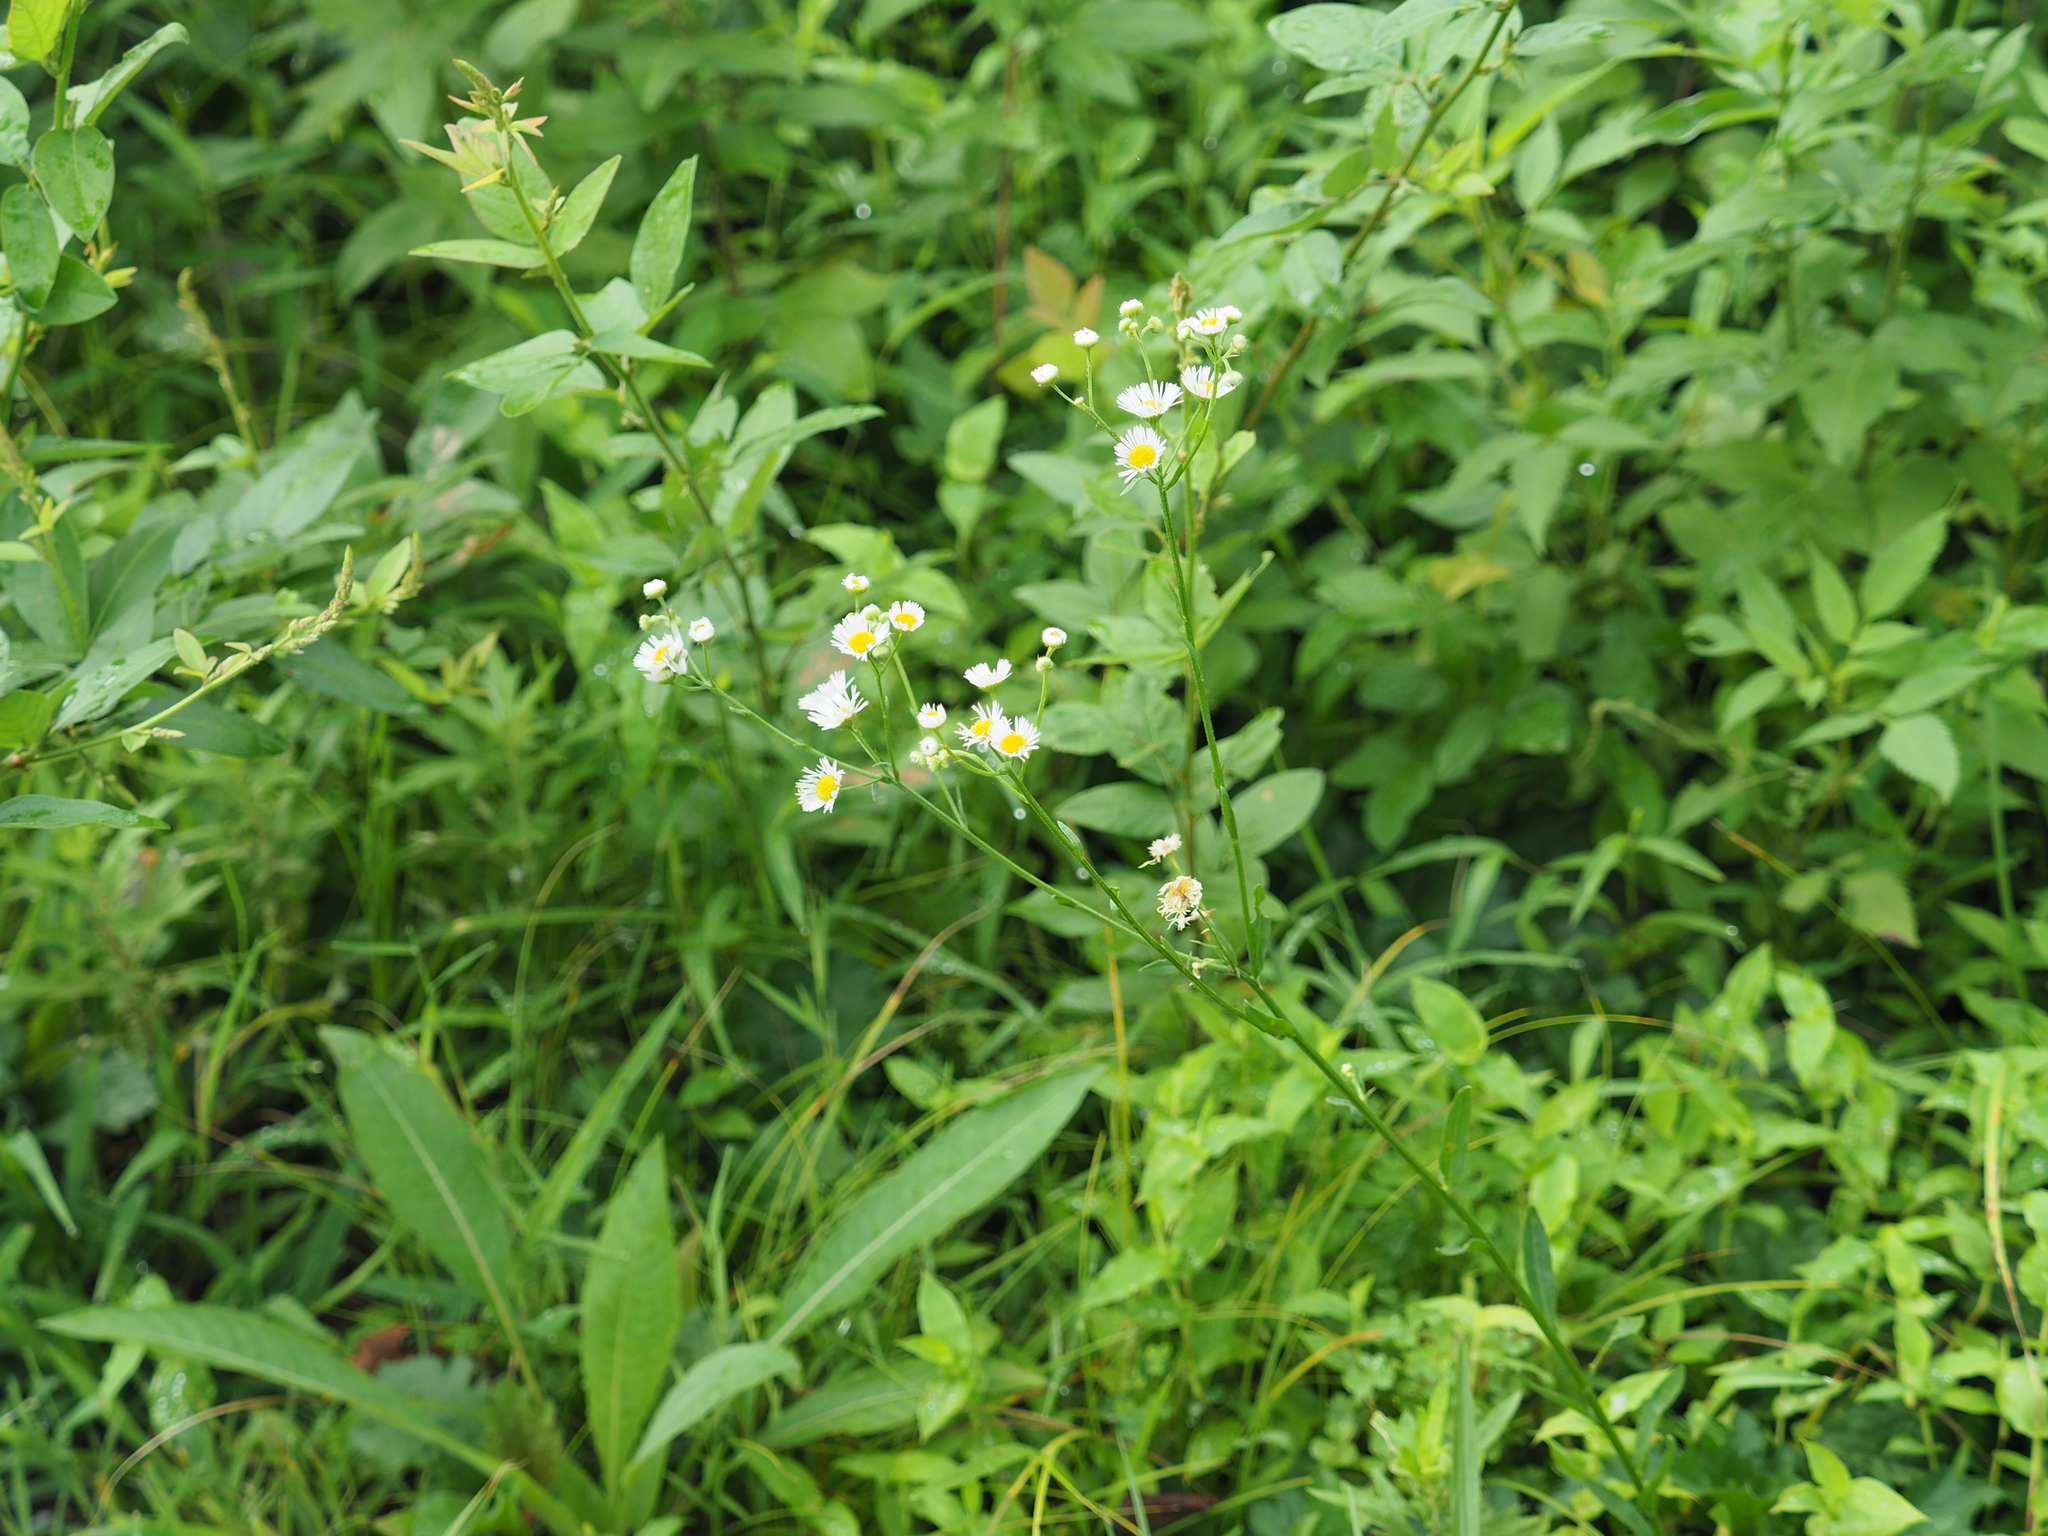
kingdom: Plantae
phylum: Tracheophyta
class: Magnoliopsida
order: Asterales
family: Asteraceae
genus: Erigeron
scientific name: Erigeron strigosus
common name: Common eastern fleabane
